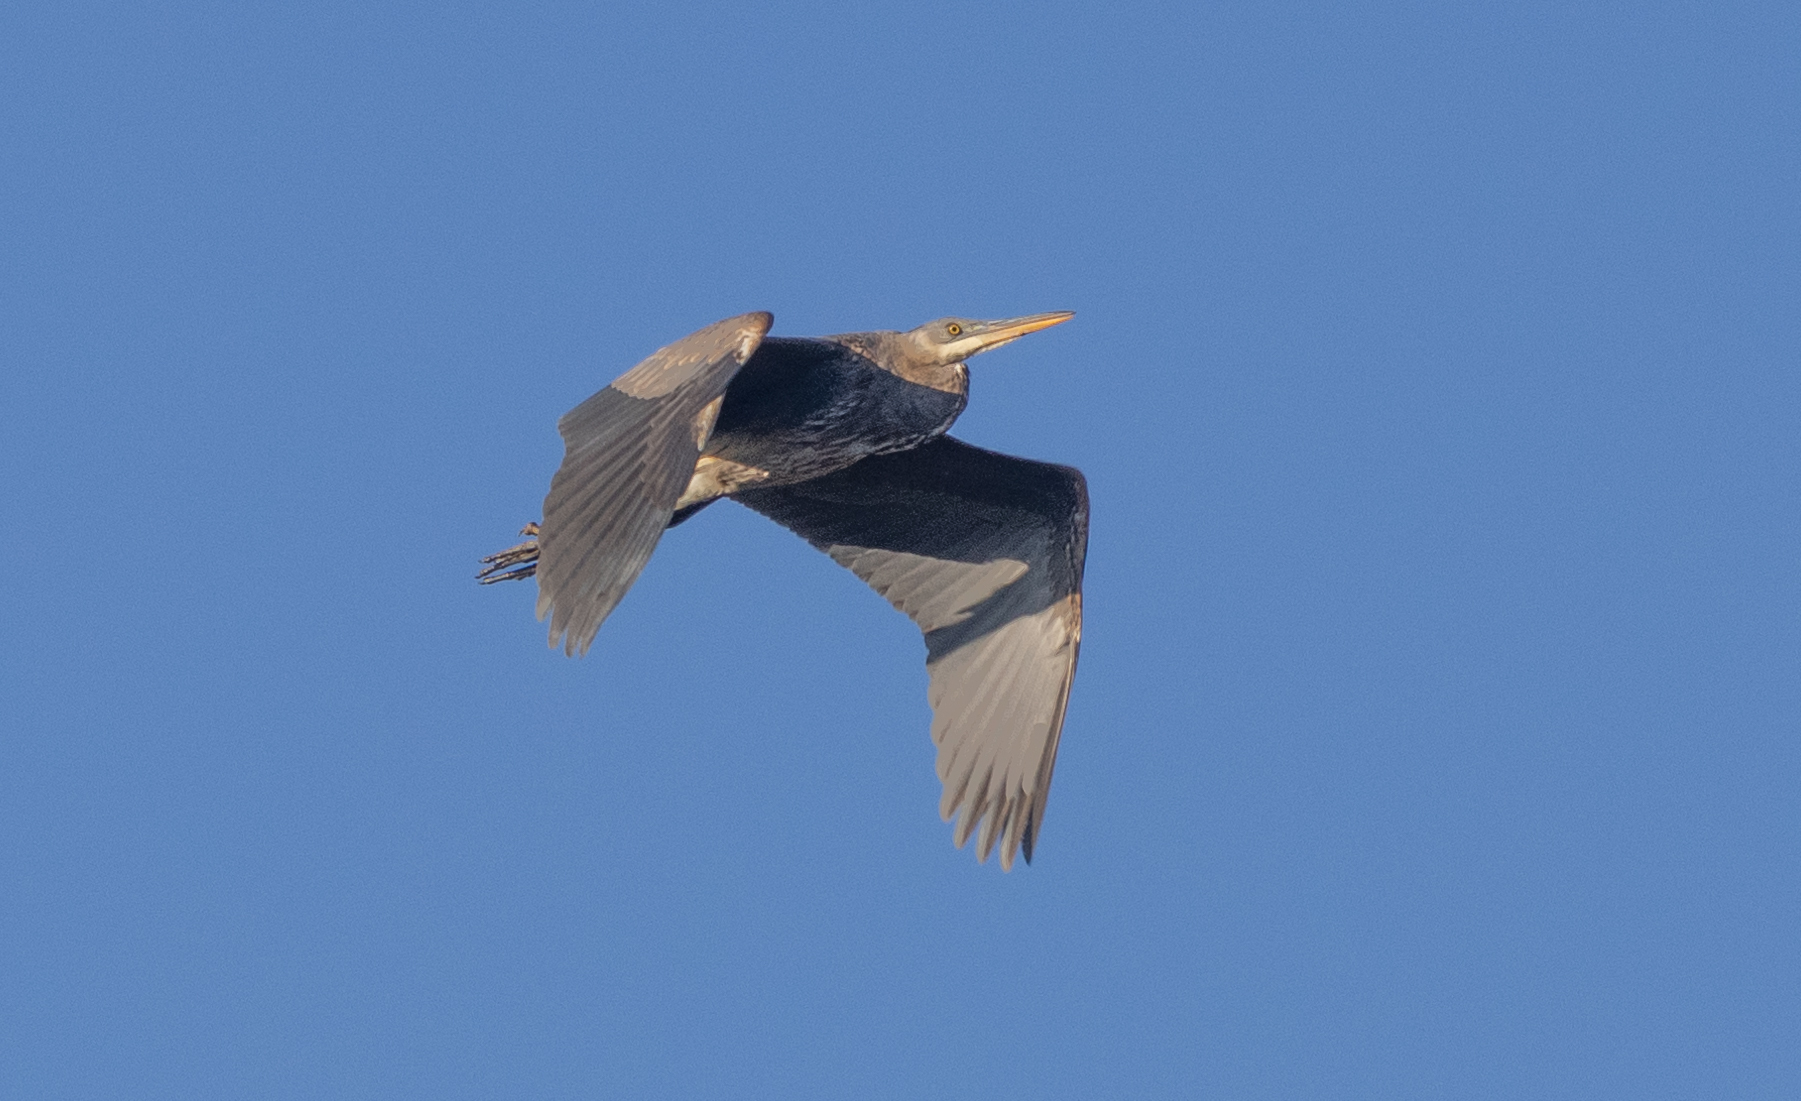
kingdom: Animalia
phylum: Chordata
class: Aves
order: Pelecaniformes
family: Ardeidae
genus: Ardea
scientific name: Ardea herodias
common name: Great blue heron
